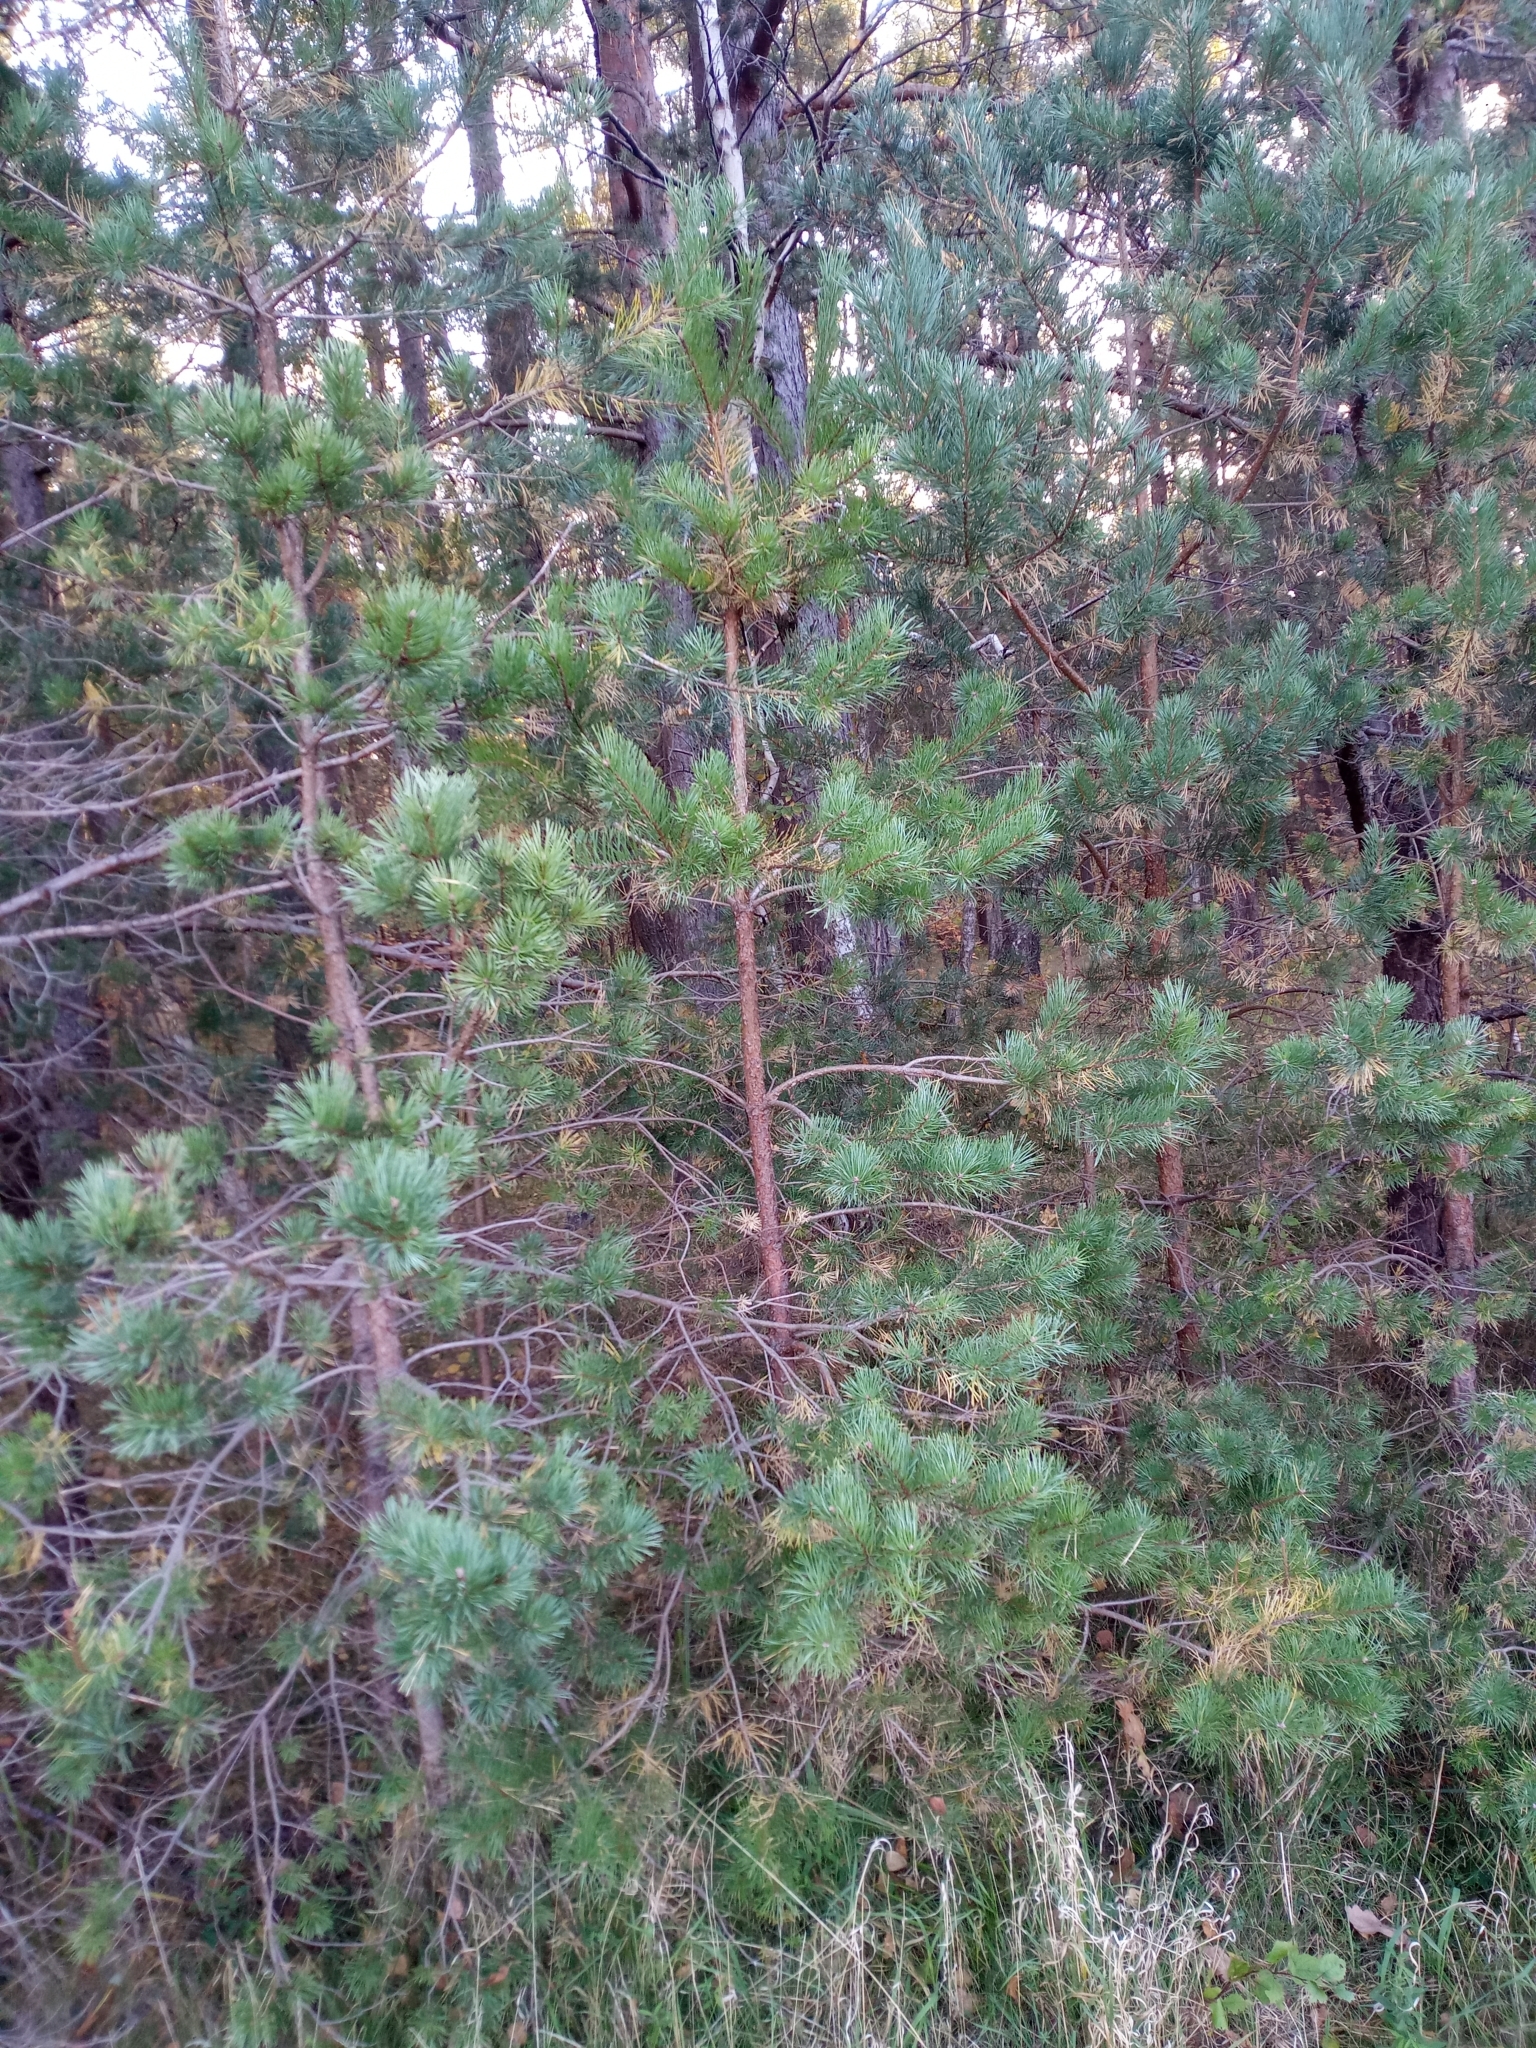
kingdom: Plantae
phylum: Tracheophyta
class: Pinopsida
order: Pinales
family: Pinaceae
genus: Pinus
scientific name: Pinus sylvestris
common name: Scots pine
